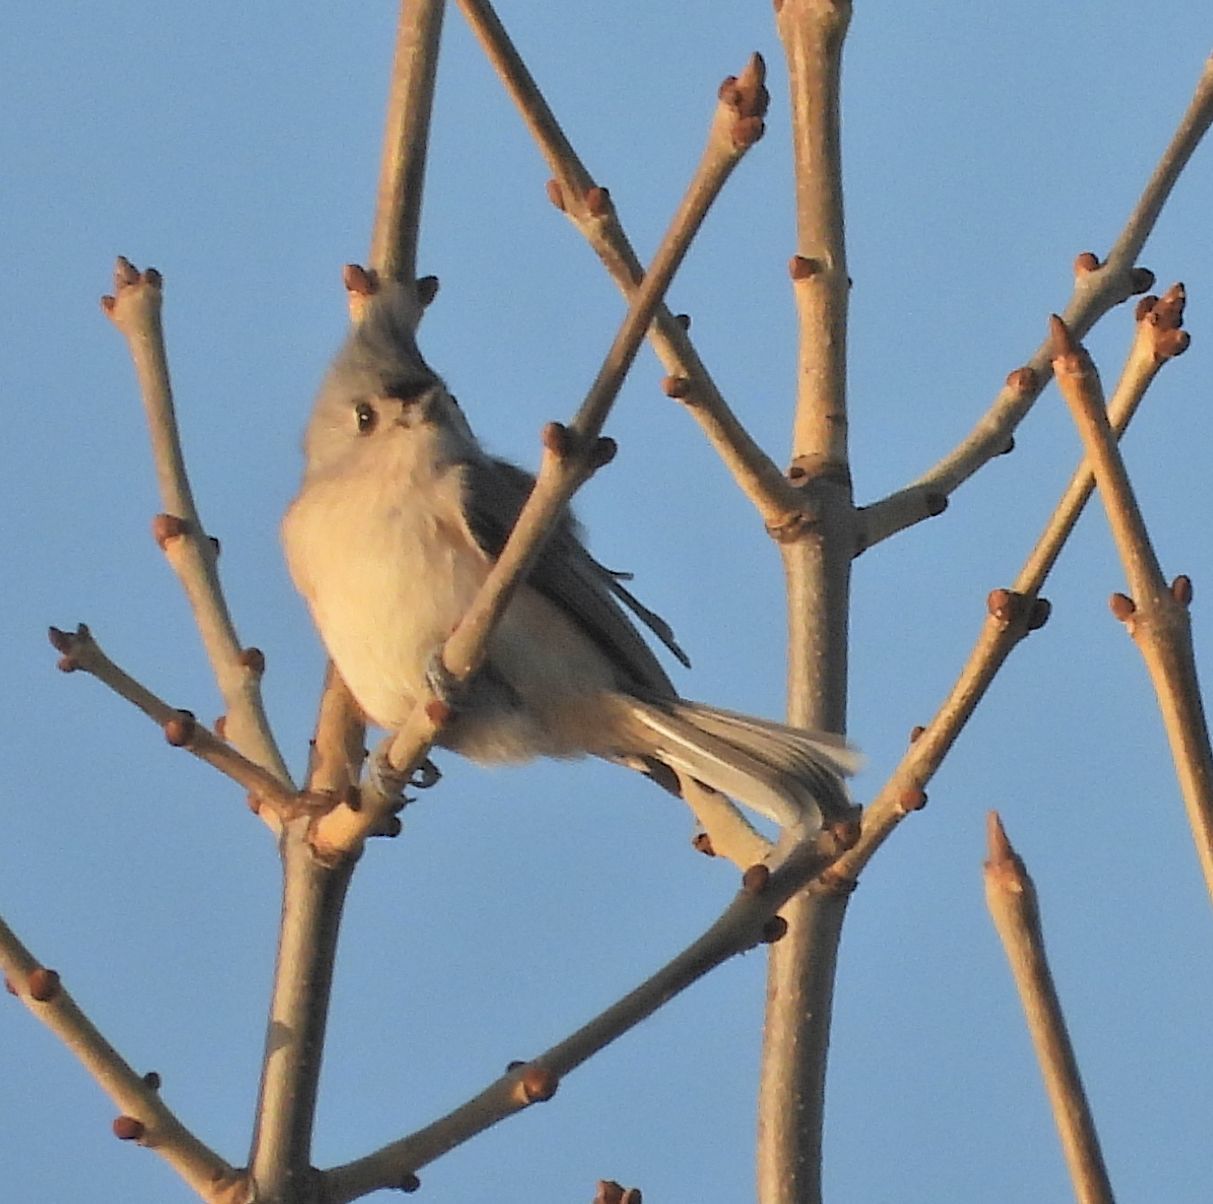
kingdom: Animalia
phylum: Chordata
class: Aves
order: Passeriformes
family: Paridae
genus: Baeolophus
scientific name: Baeolophus bicolor
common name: Tufted titmouse
